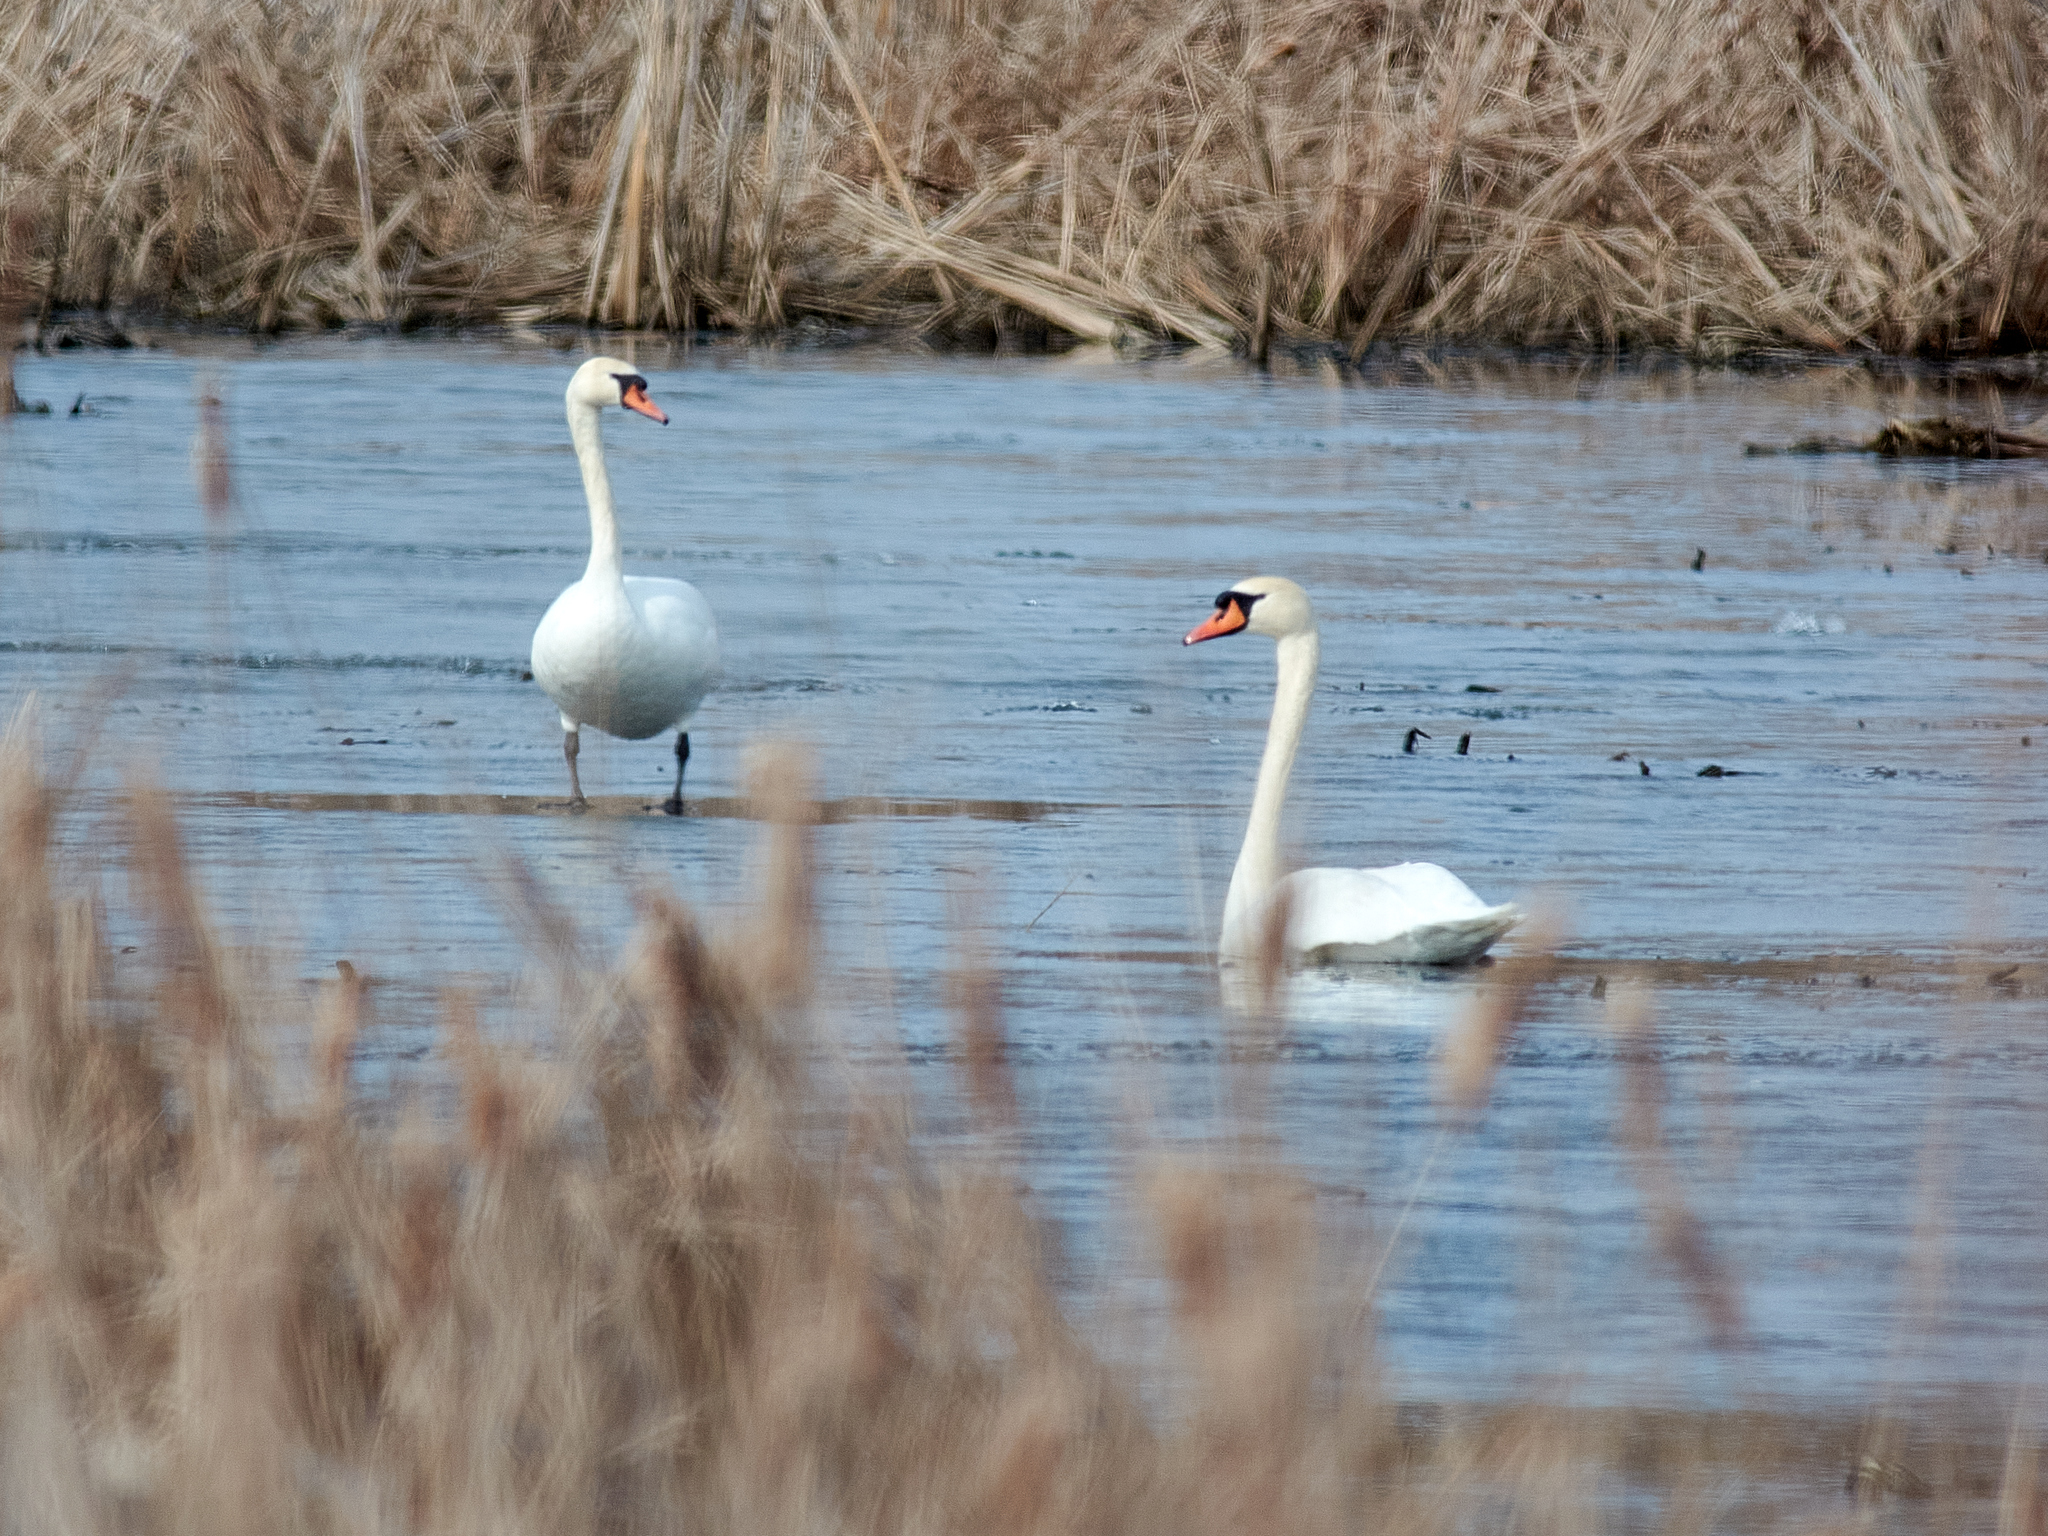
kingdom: Animalia
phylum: Chordata
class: Aves
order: Anseriformes
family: Anatidae
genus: Cygnus
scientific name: Cygnus olor
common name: Mute swan
